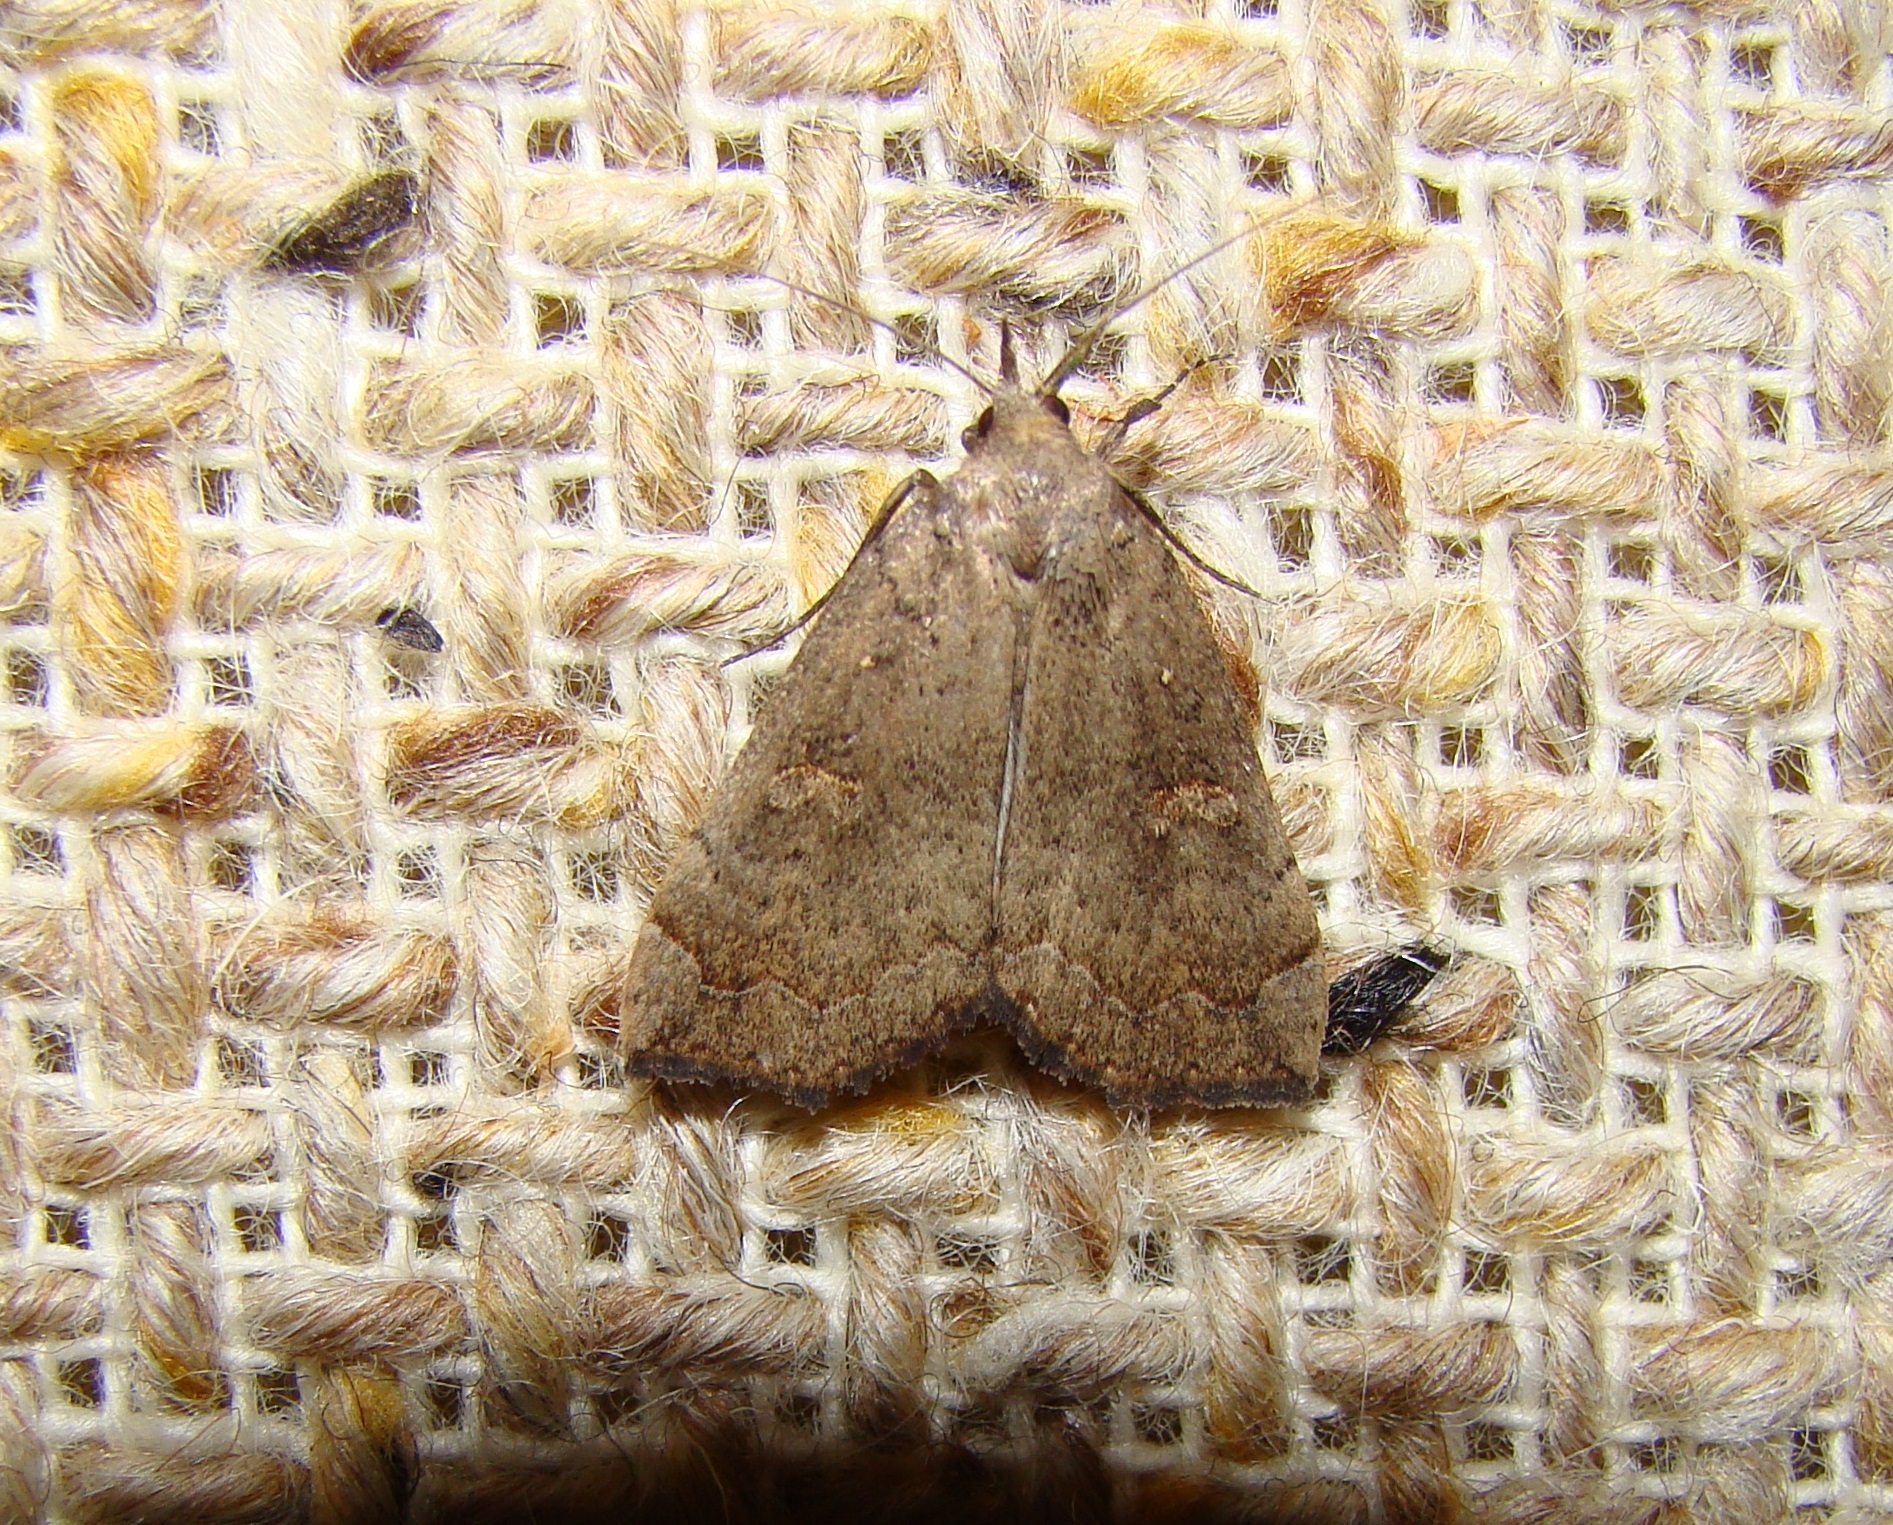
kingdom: Animalia
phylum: Arthropoda
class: Insecta
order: Lepidoptera
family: Erebidae
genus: Rhapsa
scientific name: Rhapsa scotosialis
